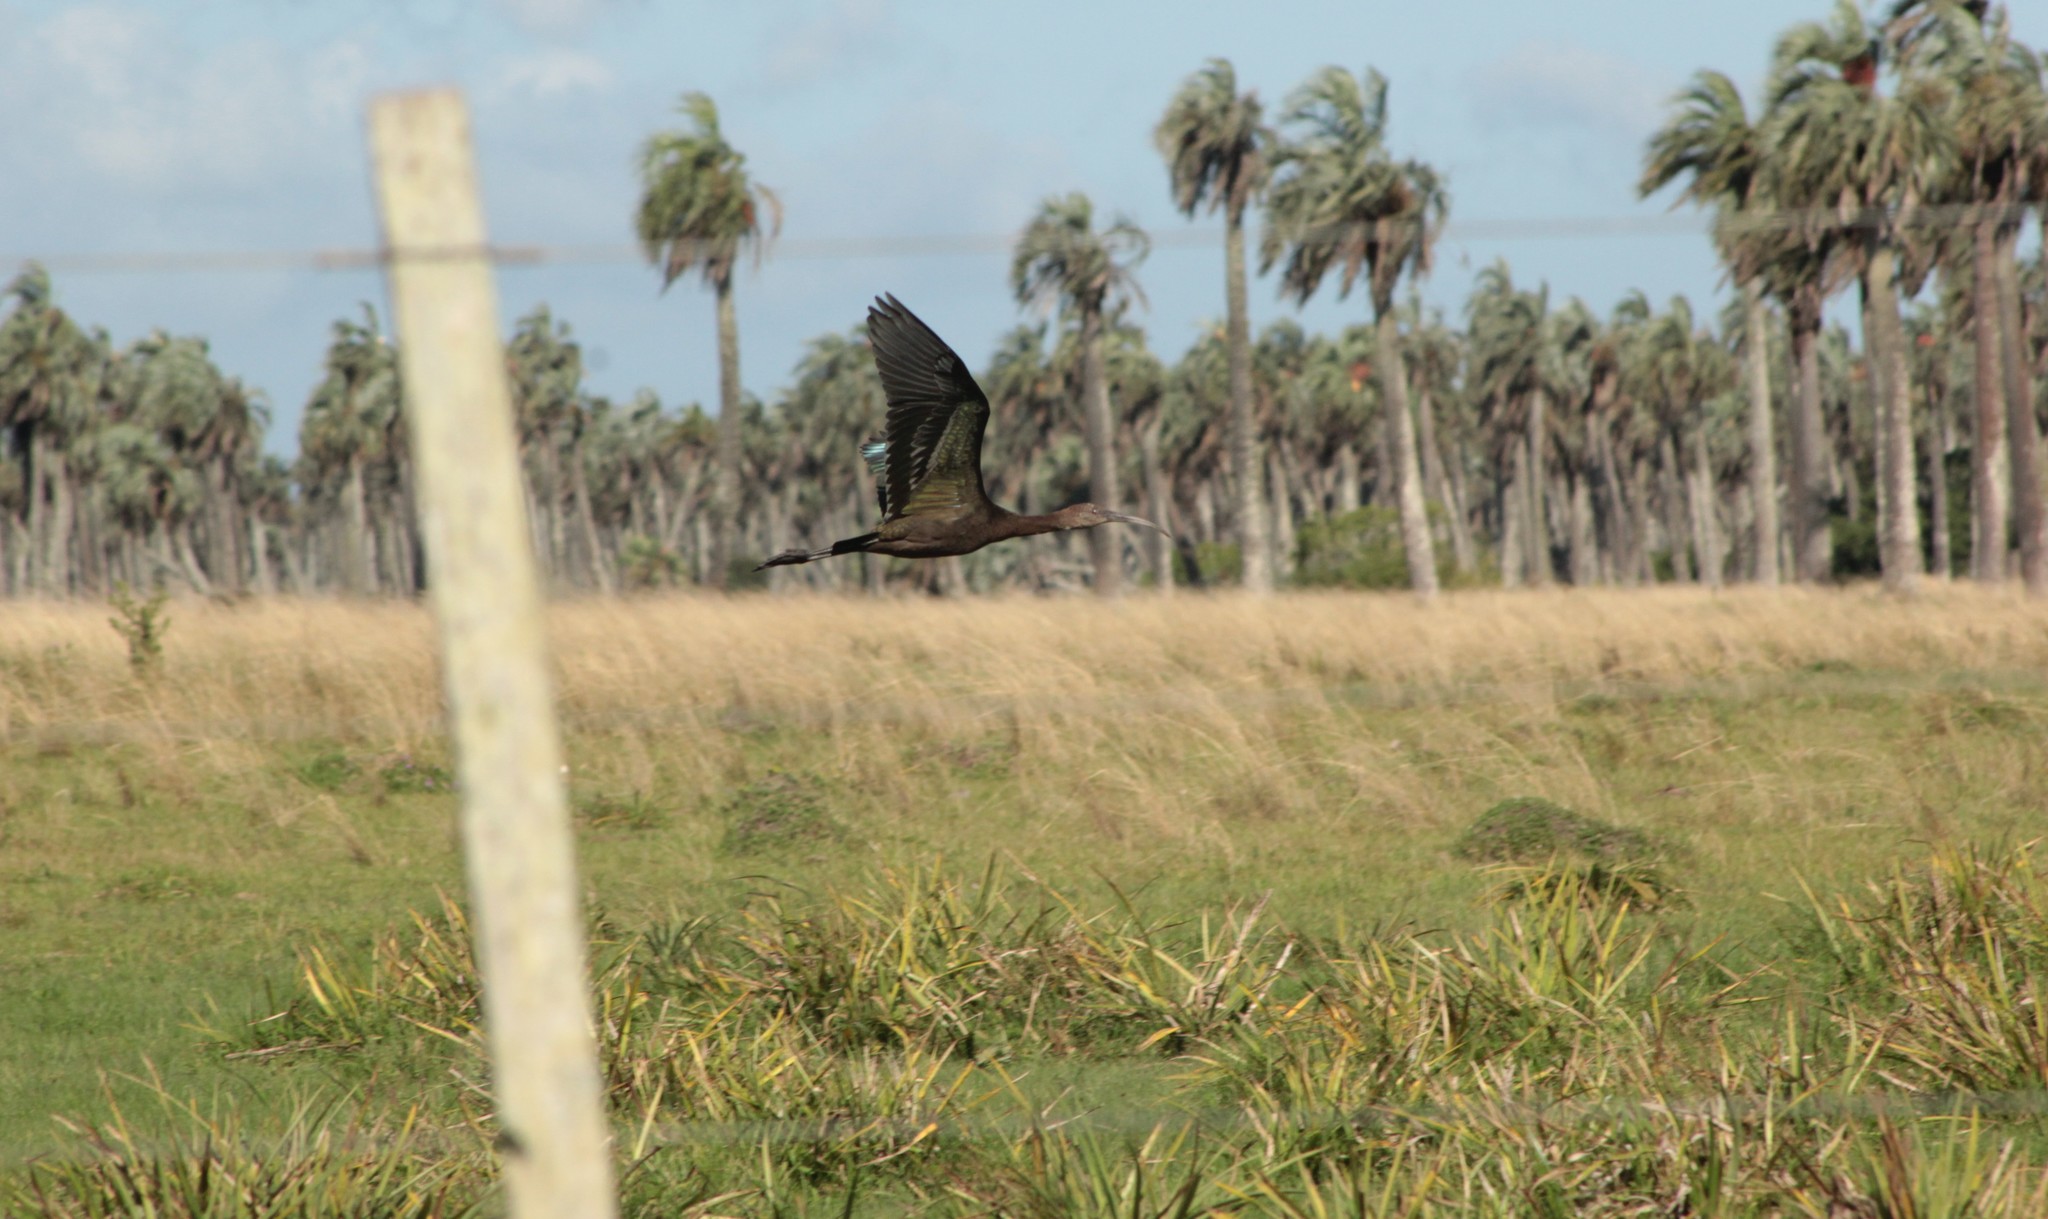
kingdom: Animalia
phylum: Chordata
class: Aves
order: Pelecaniformes
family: Threskiornithidae
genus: Plegadis
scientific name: Plegadis chihi
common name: White-faced ibis
